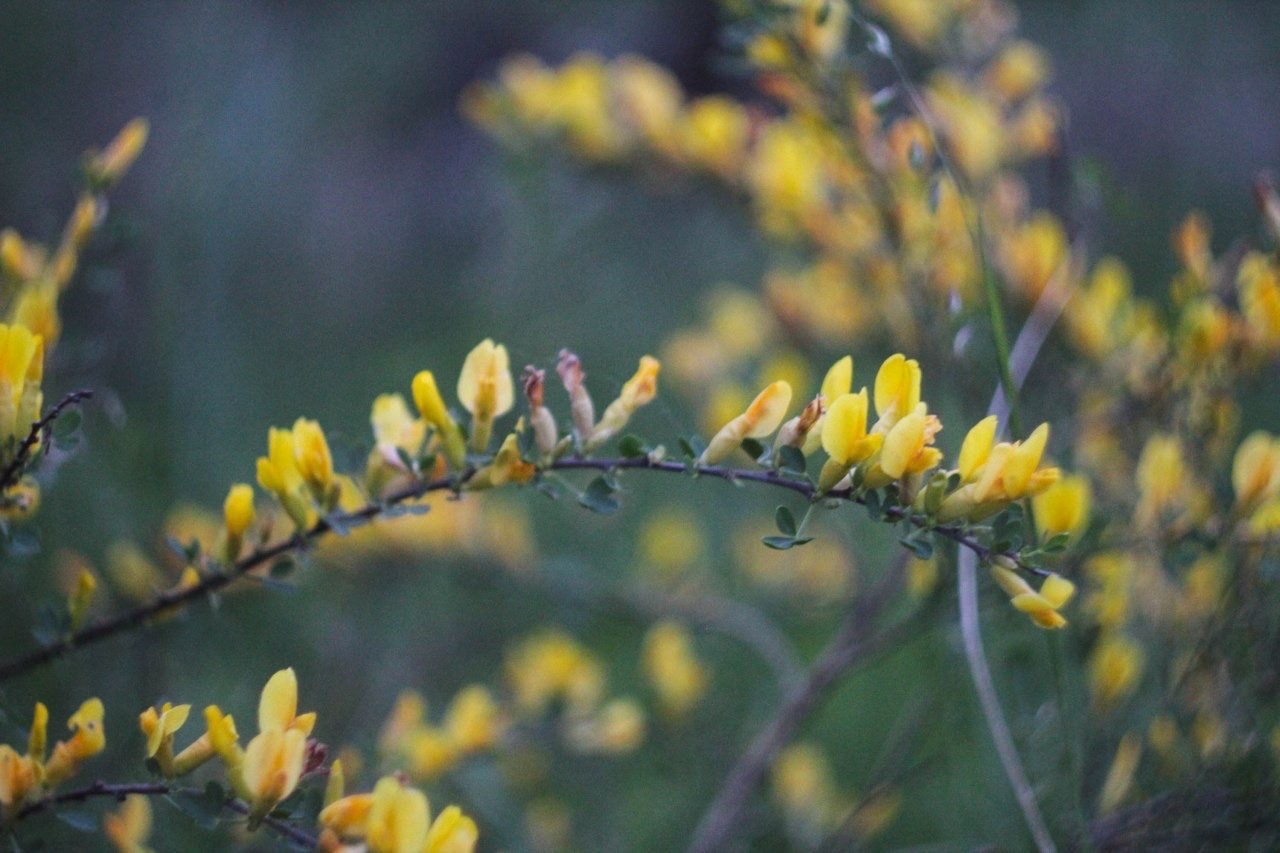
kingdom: Plantae
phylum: Tracheophyta
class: Magnoliopsida
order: Fabales
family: Fabaceae
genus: Chamaecytisus
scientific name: Chamaecytisus ruthenicus
